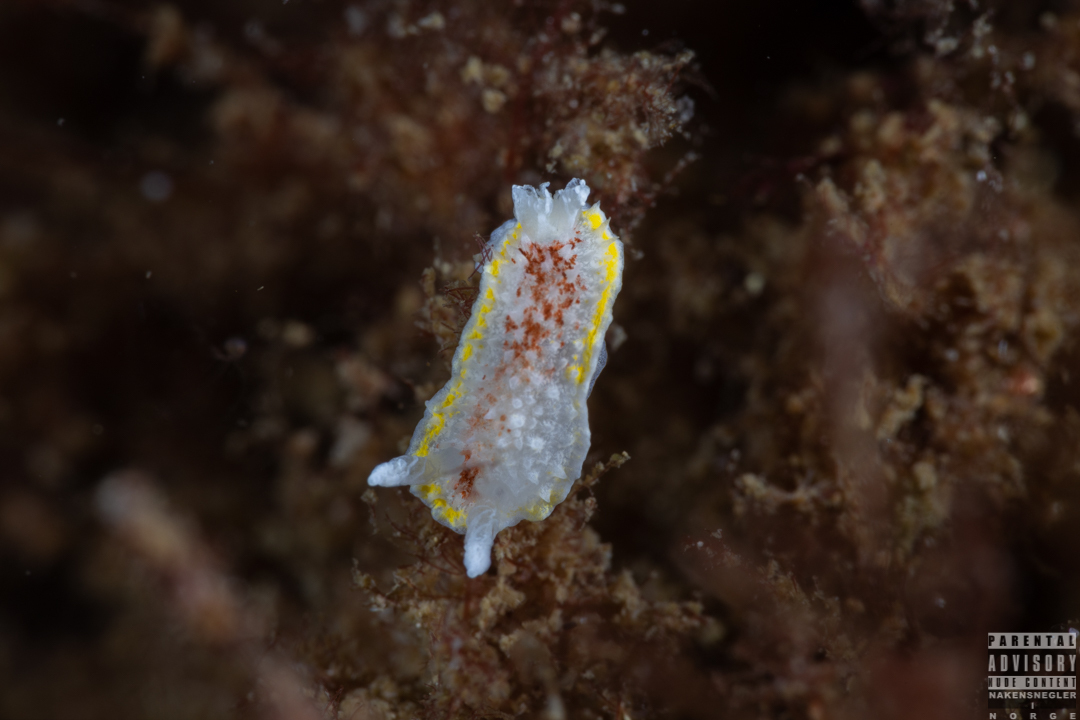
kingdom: Animalia
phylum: Mollusca
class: Gastropoda
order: Nudibranchia
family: Calycidorididae
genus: Diaphorodoris
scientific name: Diaphorodoris luteocincta
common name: Fried egg nudibranch
